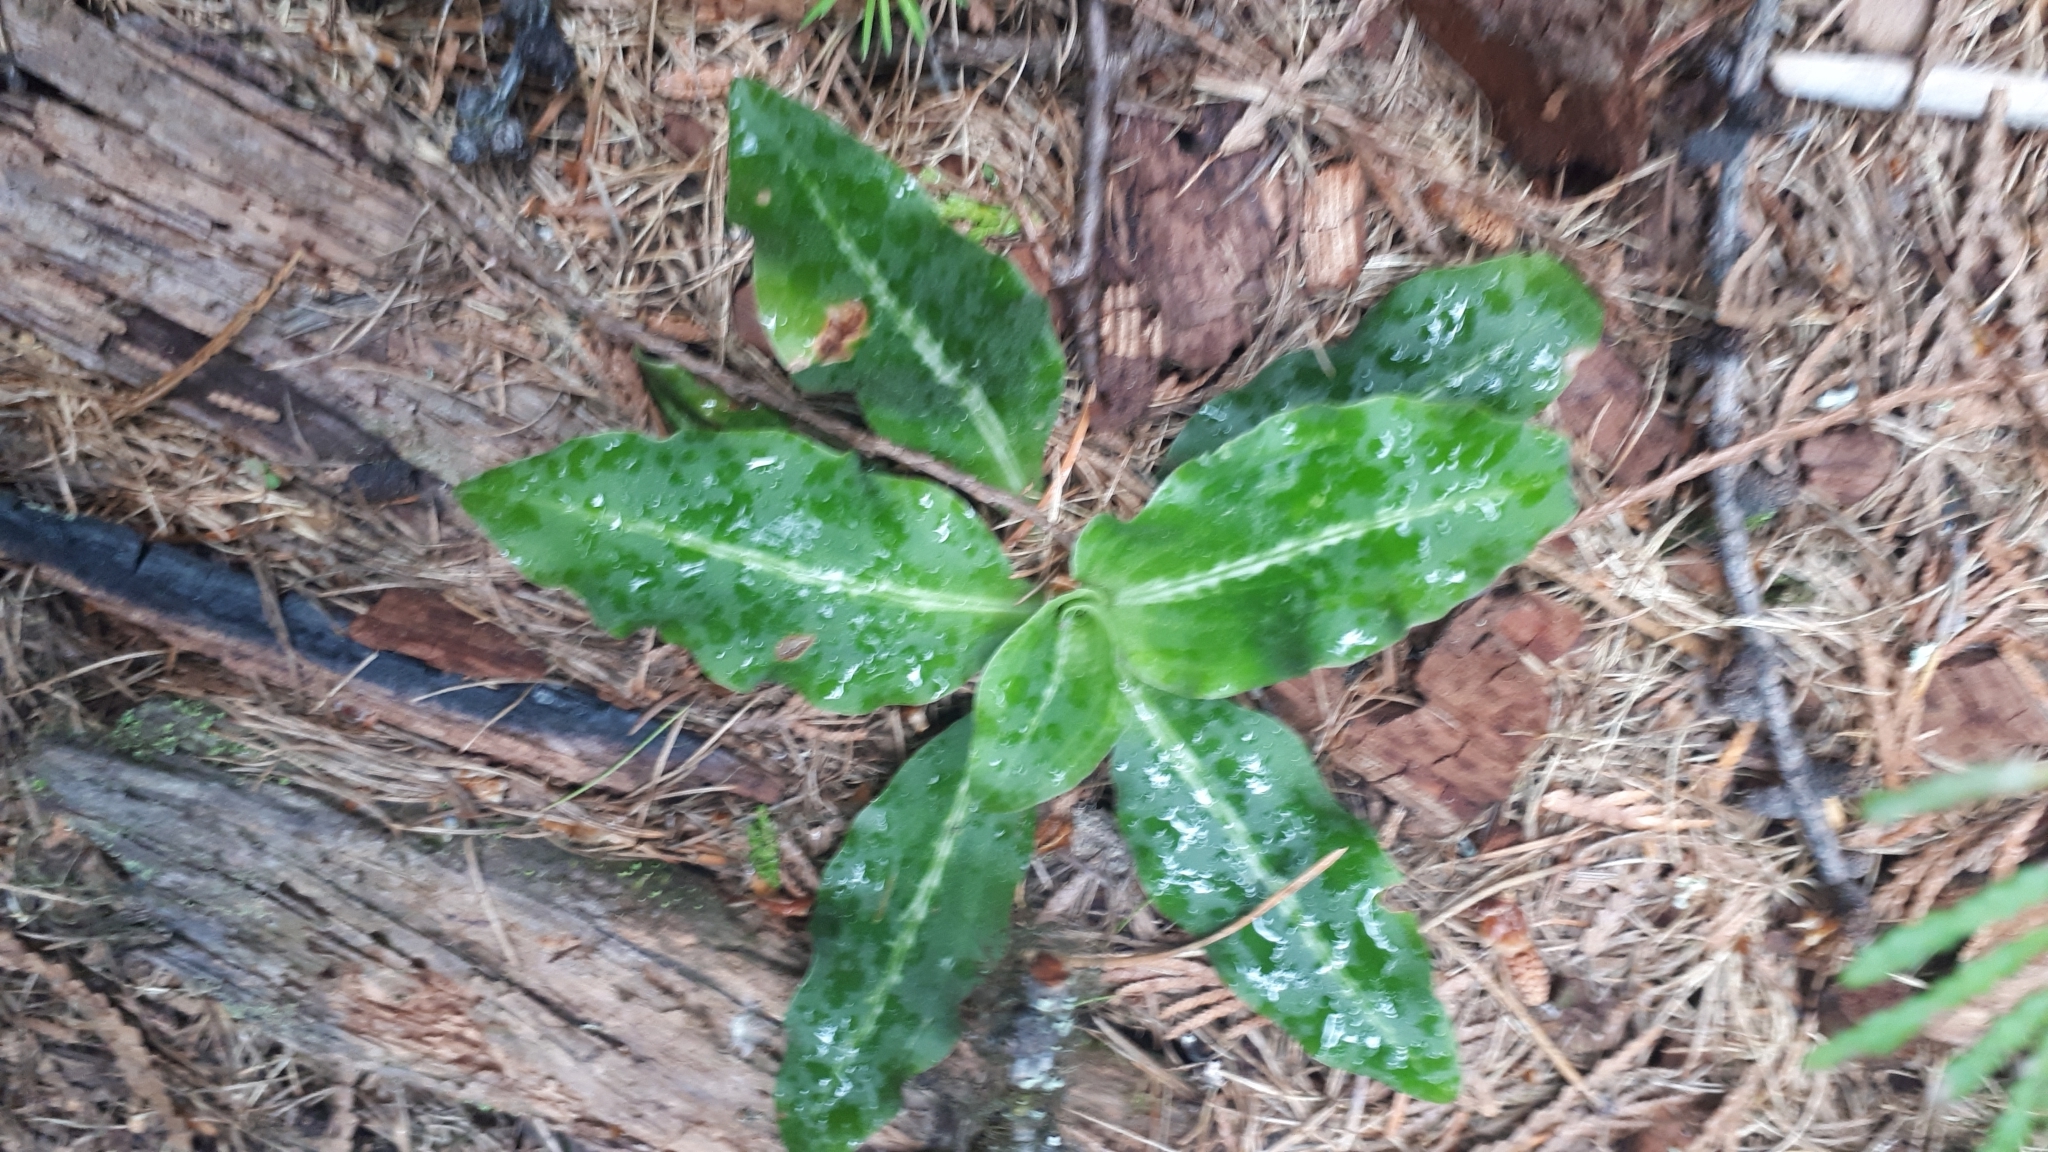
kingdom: Plantae
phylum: Tracheophyta
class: Liliopsida
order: Asparagales
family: Orchidaceae
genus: Goodyera
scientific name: Goodyera oblongifolia
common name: Giant rattlesnake-plantain
